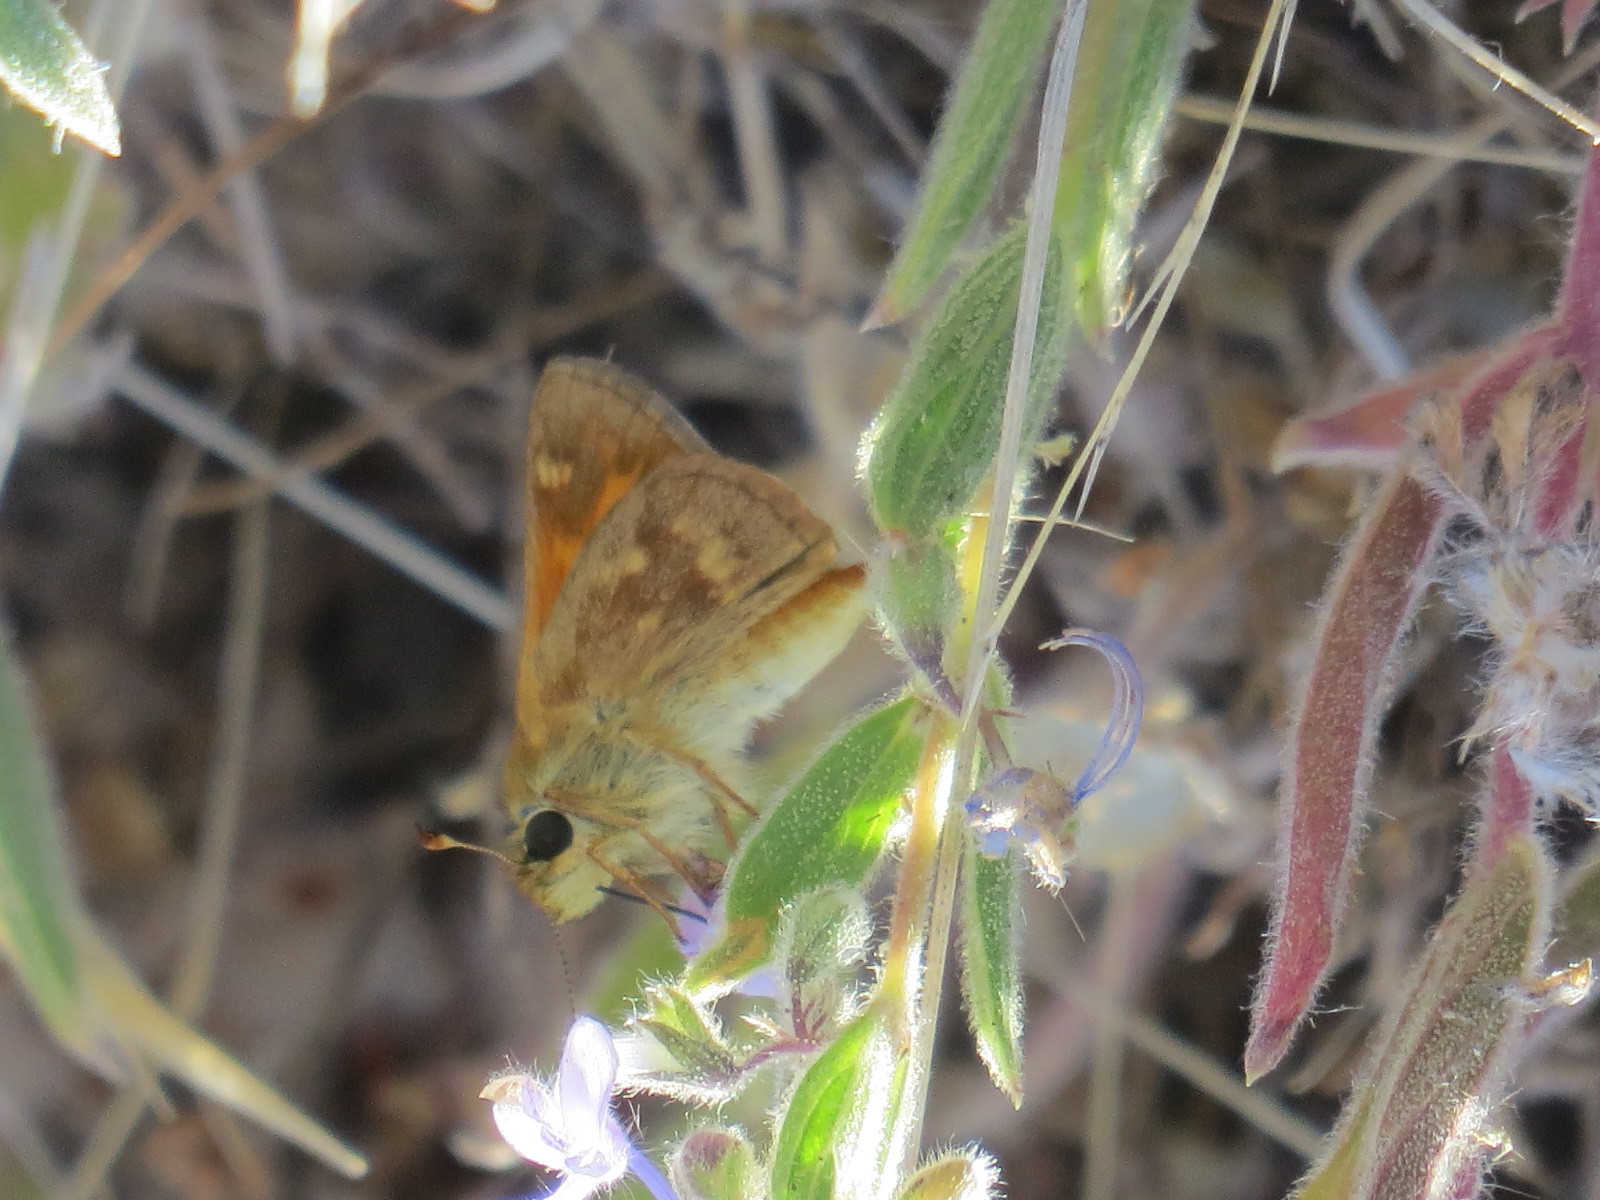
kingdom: Animalia
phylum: Arthropoda
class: Insecta
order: Lepidoptera
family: Hesperiidae
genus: Ochlodes
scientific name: Ochlodes sylvanoides
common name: Woodland skipper
